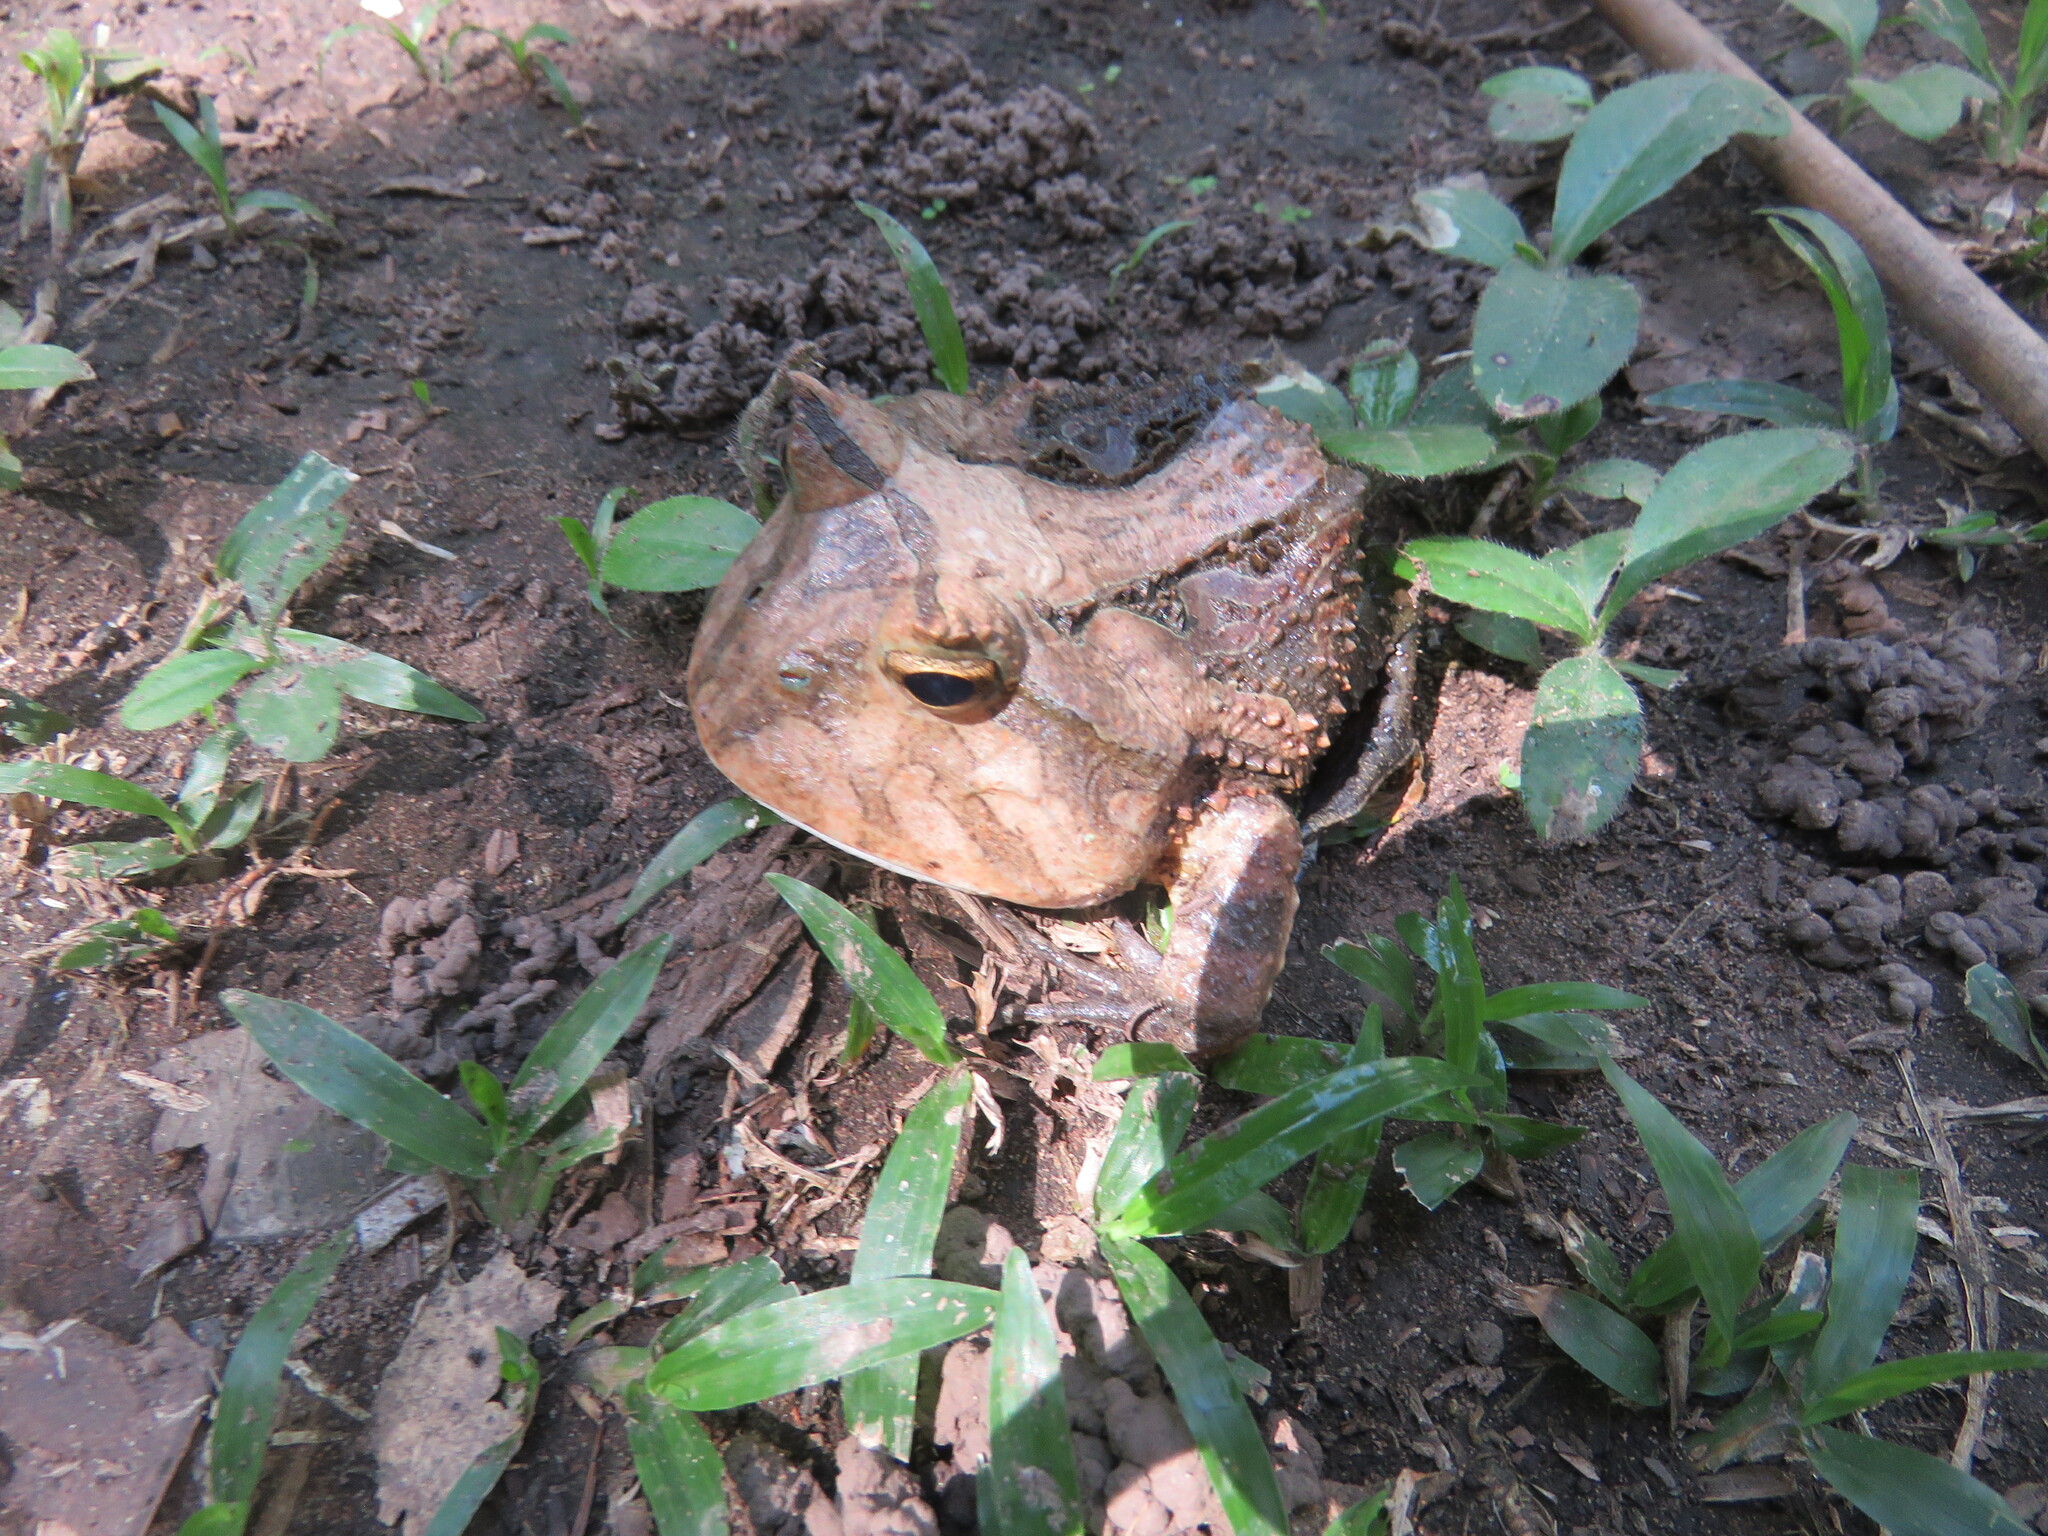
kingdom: Animalia
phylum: Chordata
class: Amphibia
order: Anura
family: Ceratophryidae
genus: Ceratophrys
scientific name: Ceratophrys cornuta
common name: Amazonian horned frog
